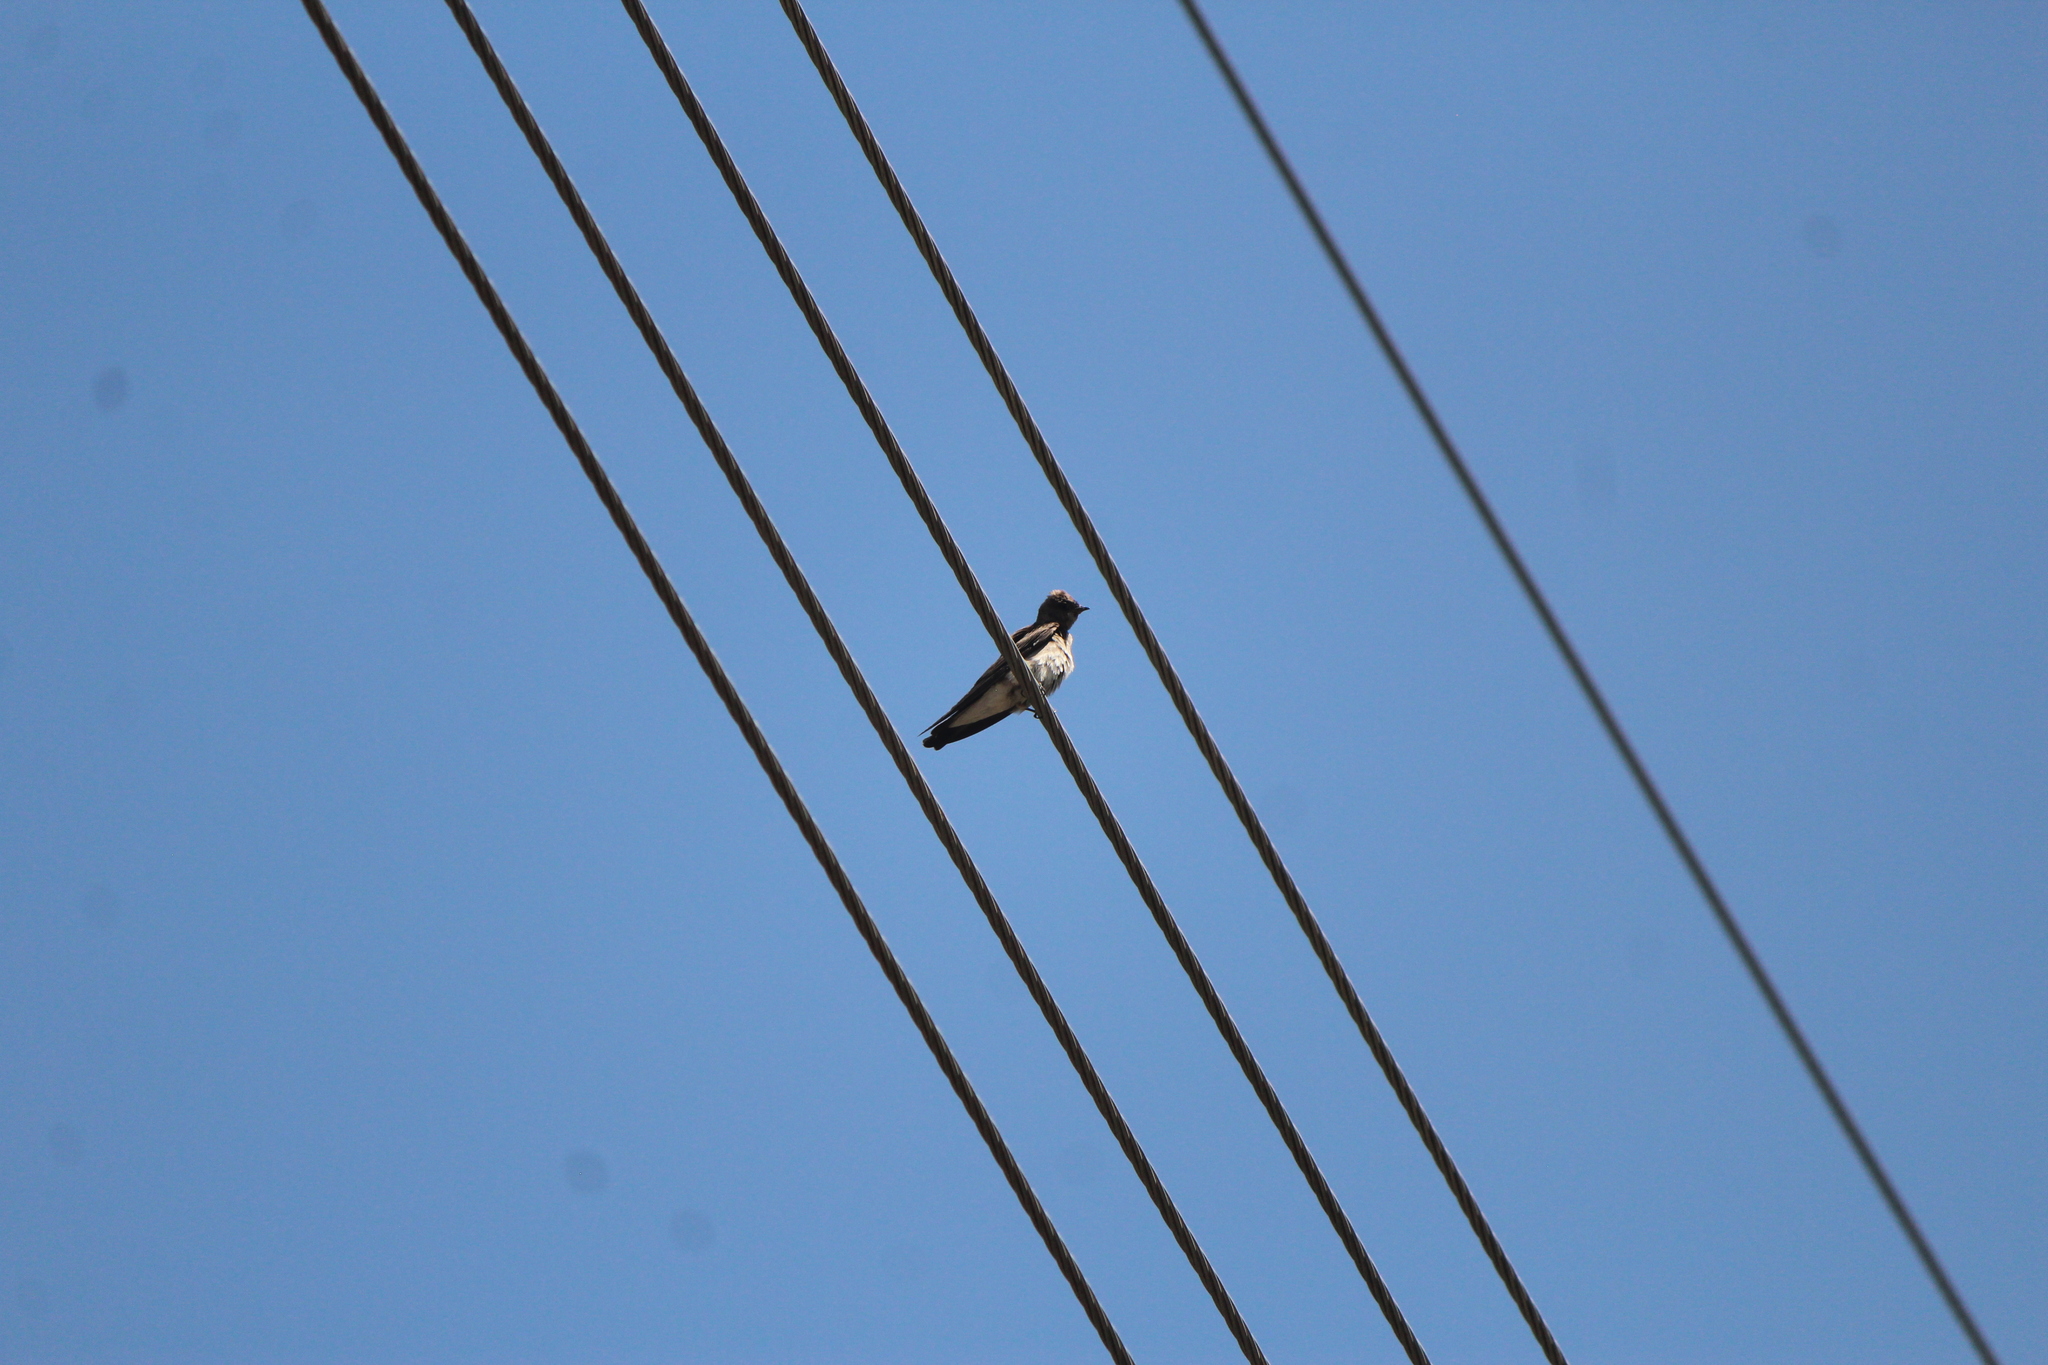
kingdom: Animalia
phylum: Chordata
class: Aves
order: Passeriformes
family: Hirundinidae
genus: Stelgidopteryx
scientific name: Stelgidopteryx serripennis
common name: Northern rough-winged swallow
